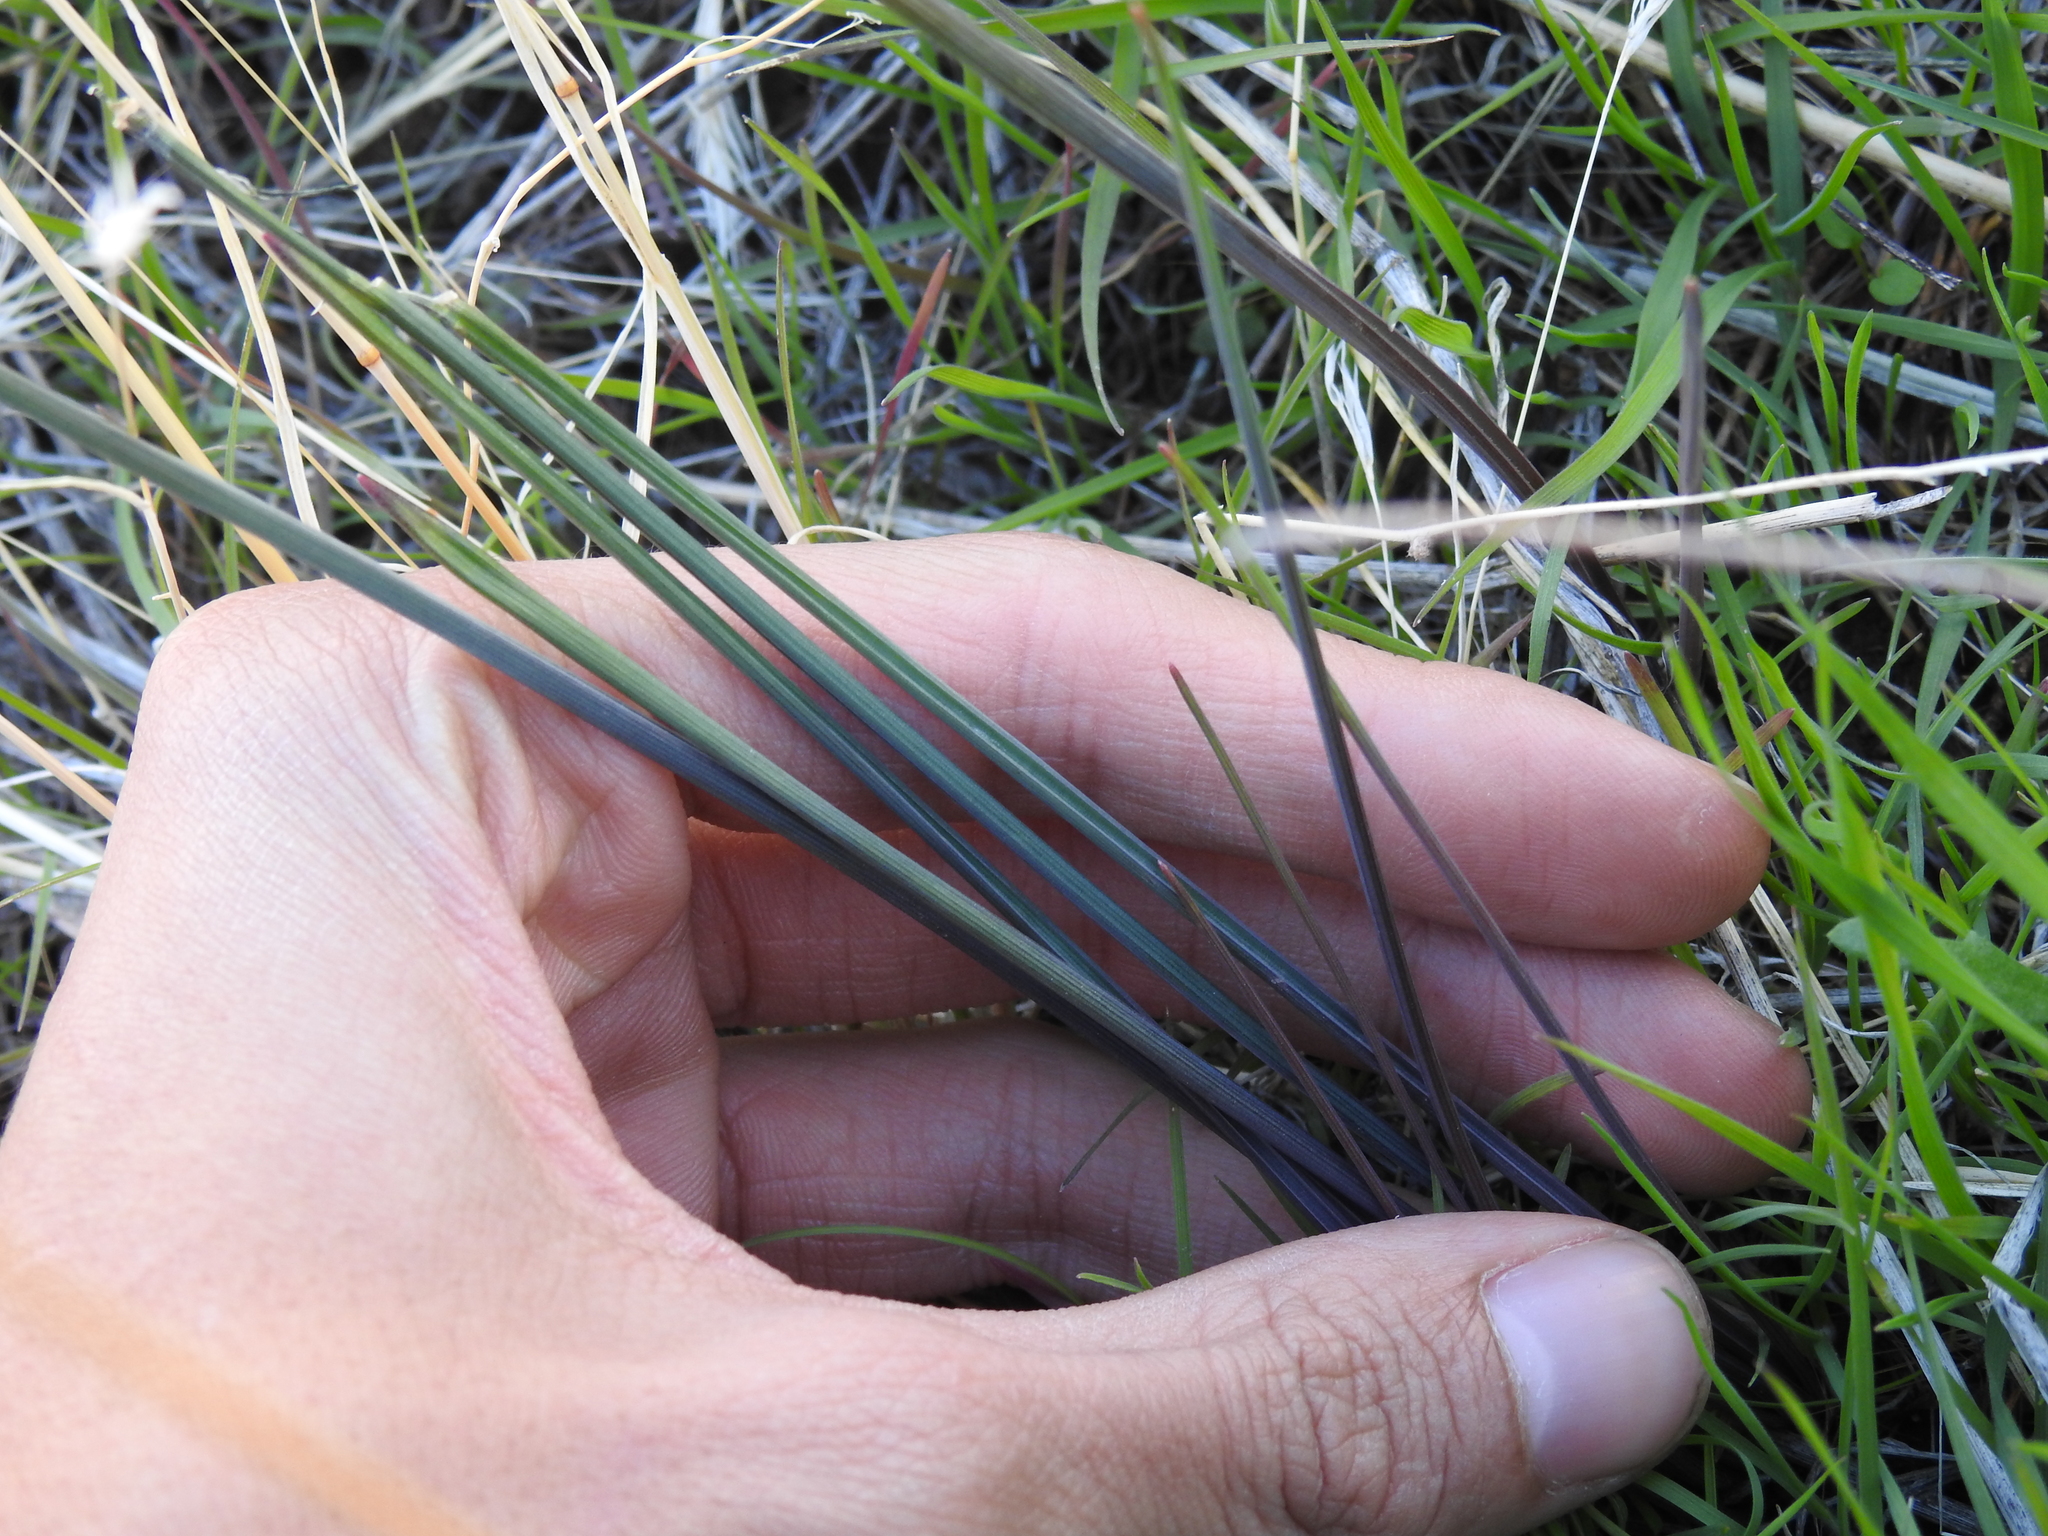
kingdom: Plantae
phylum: Tracheophyta
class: Liliopsida
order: Asparagales
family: Asparagaceae
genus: Dipterostemon
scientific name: Dipterostemon capitatus
